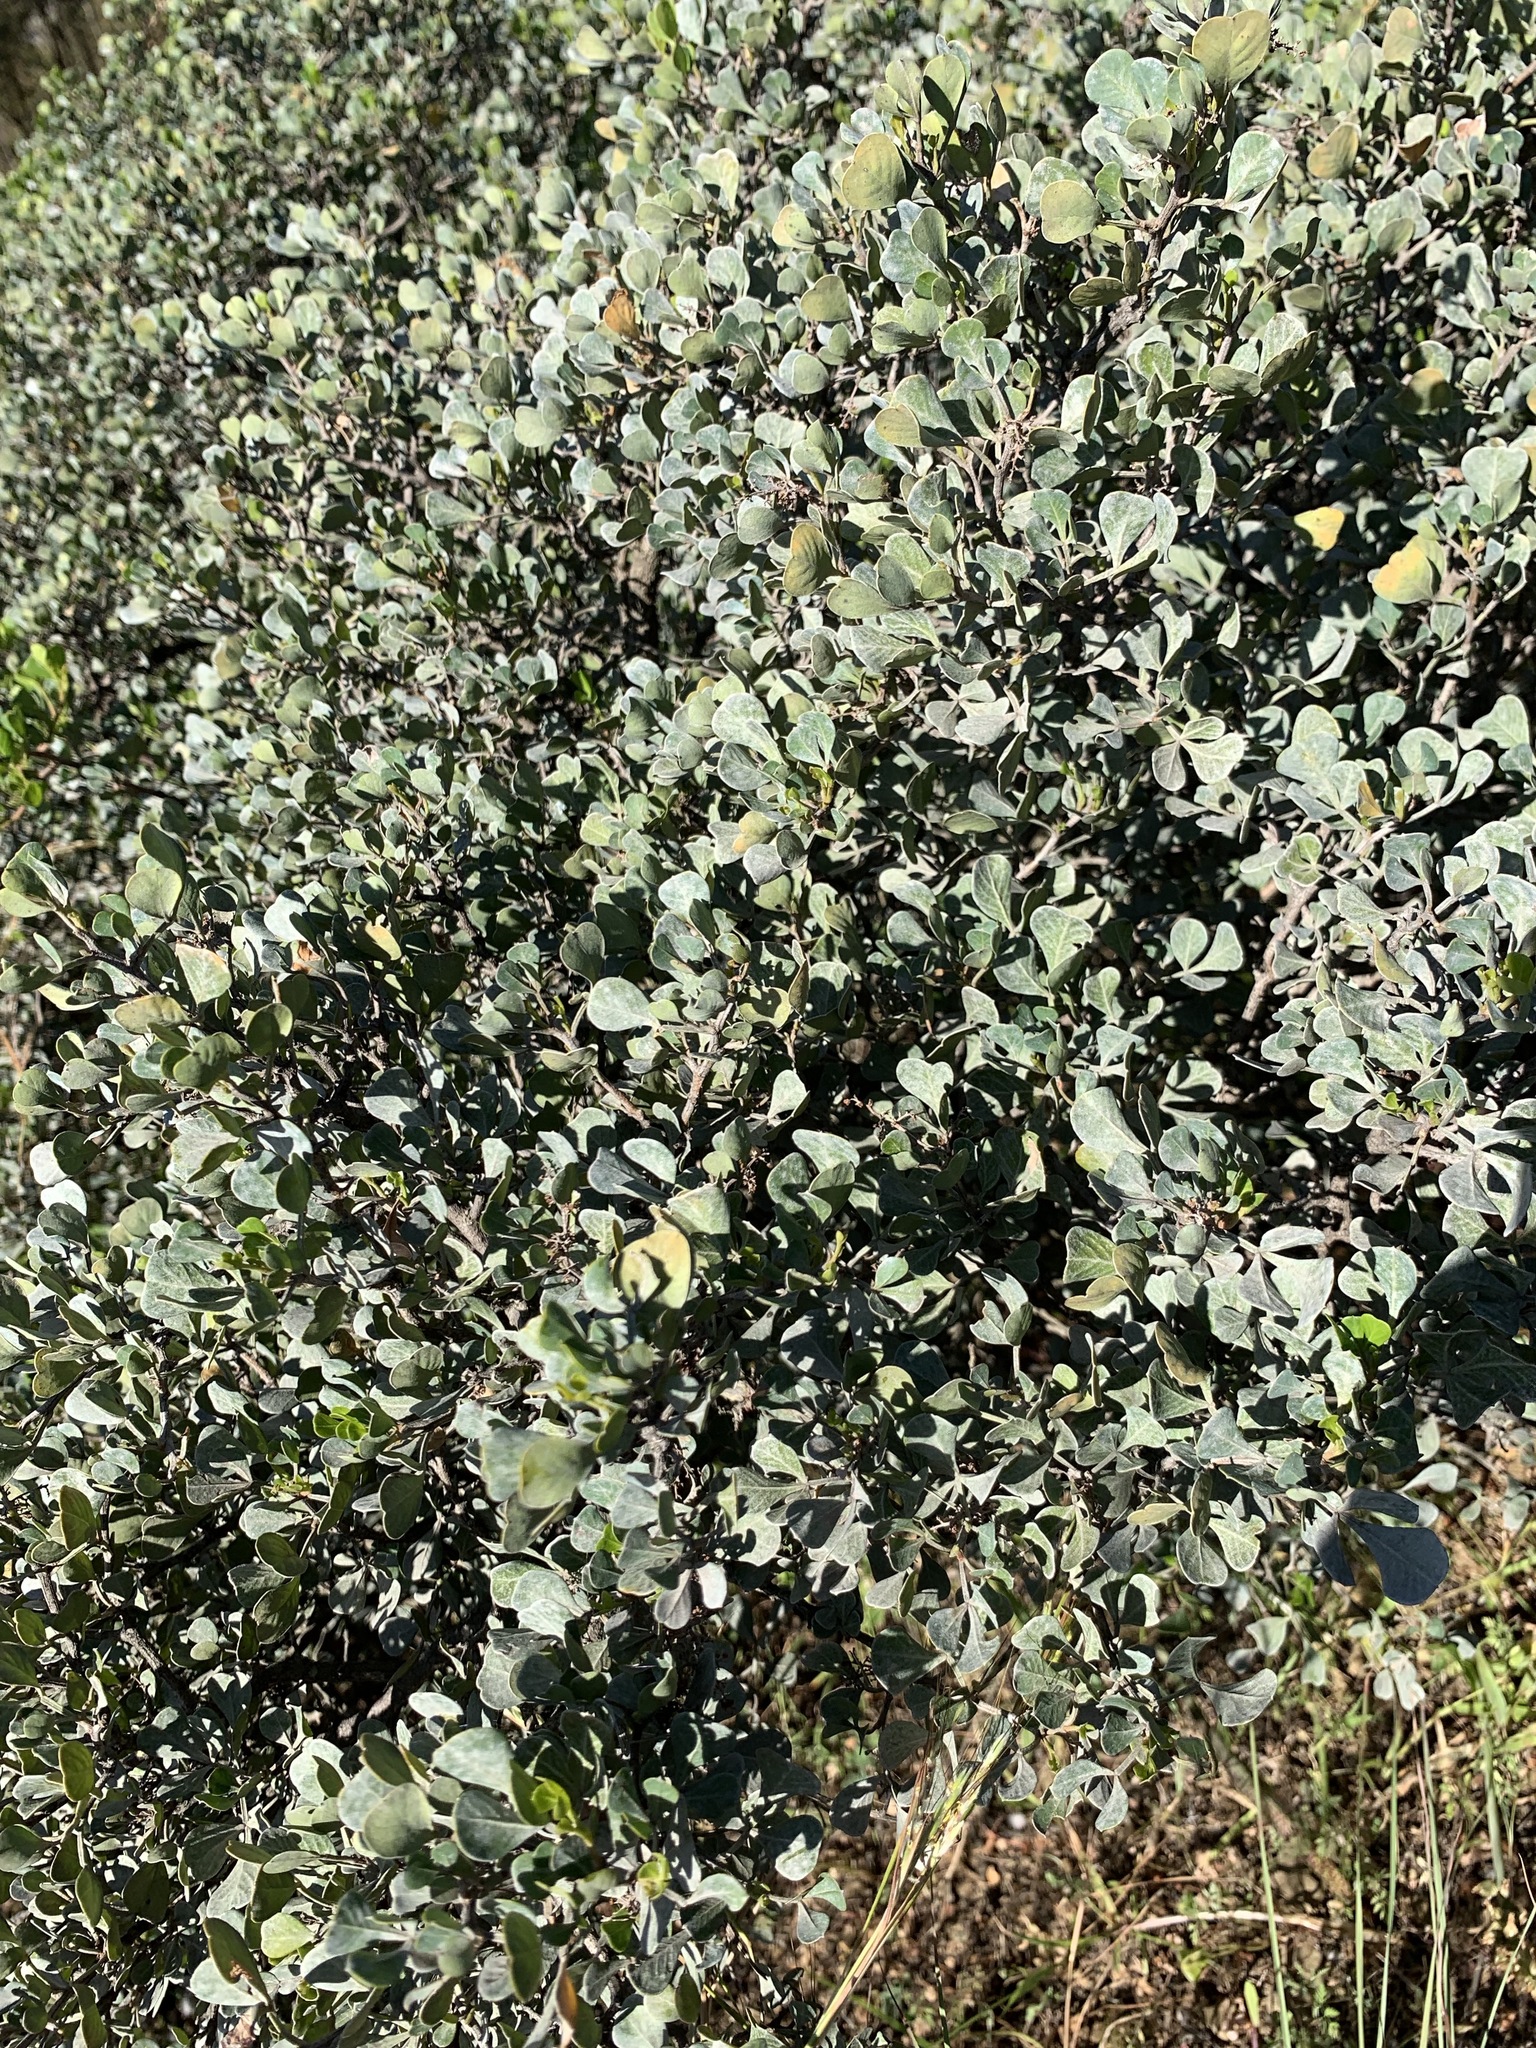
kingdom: Plantae
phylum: Tracheophyta
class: Magnoliopsida
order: Sapindales
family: Anacardiaceae
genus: Searsia
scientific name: Searsia glauca
